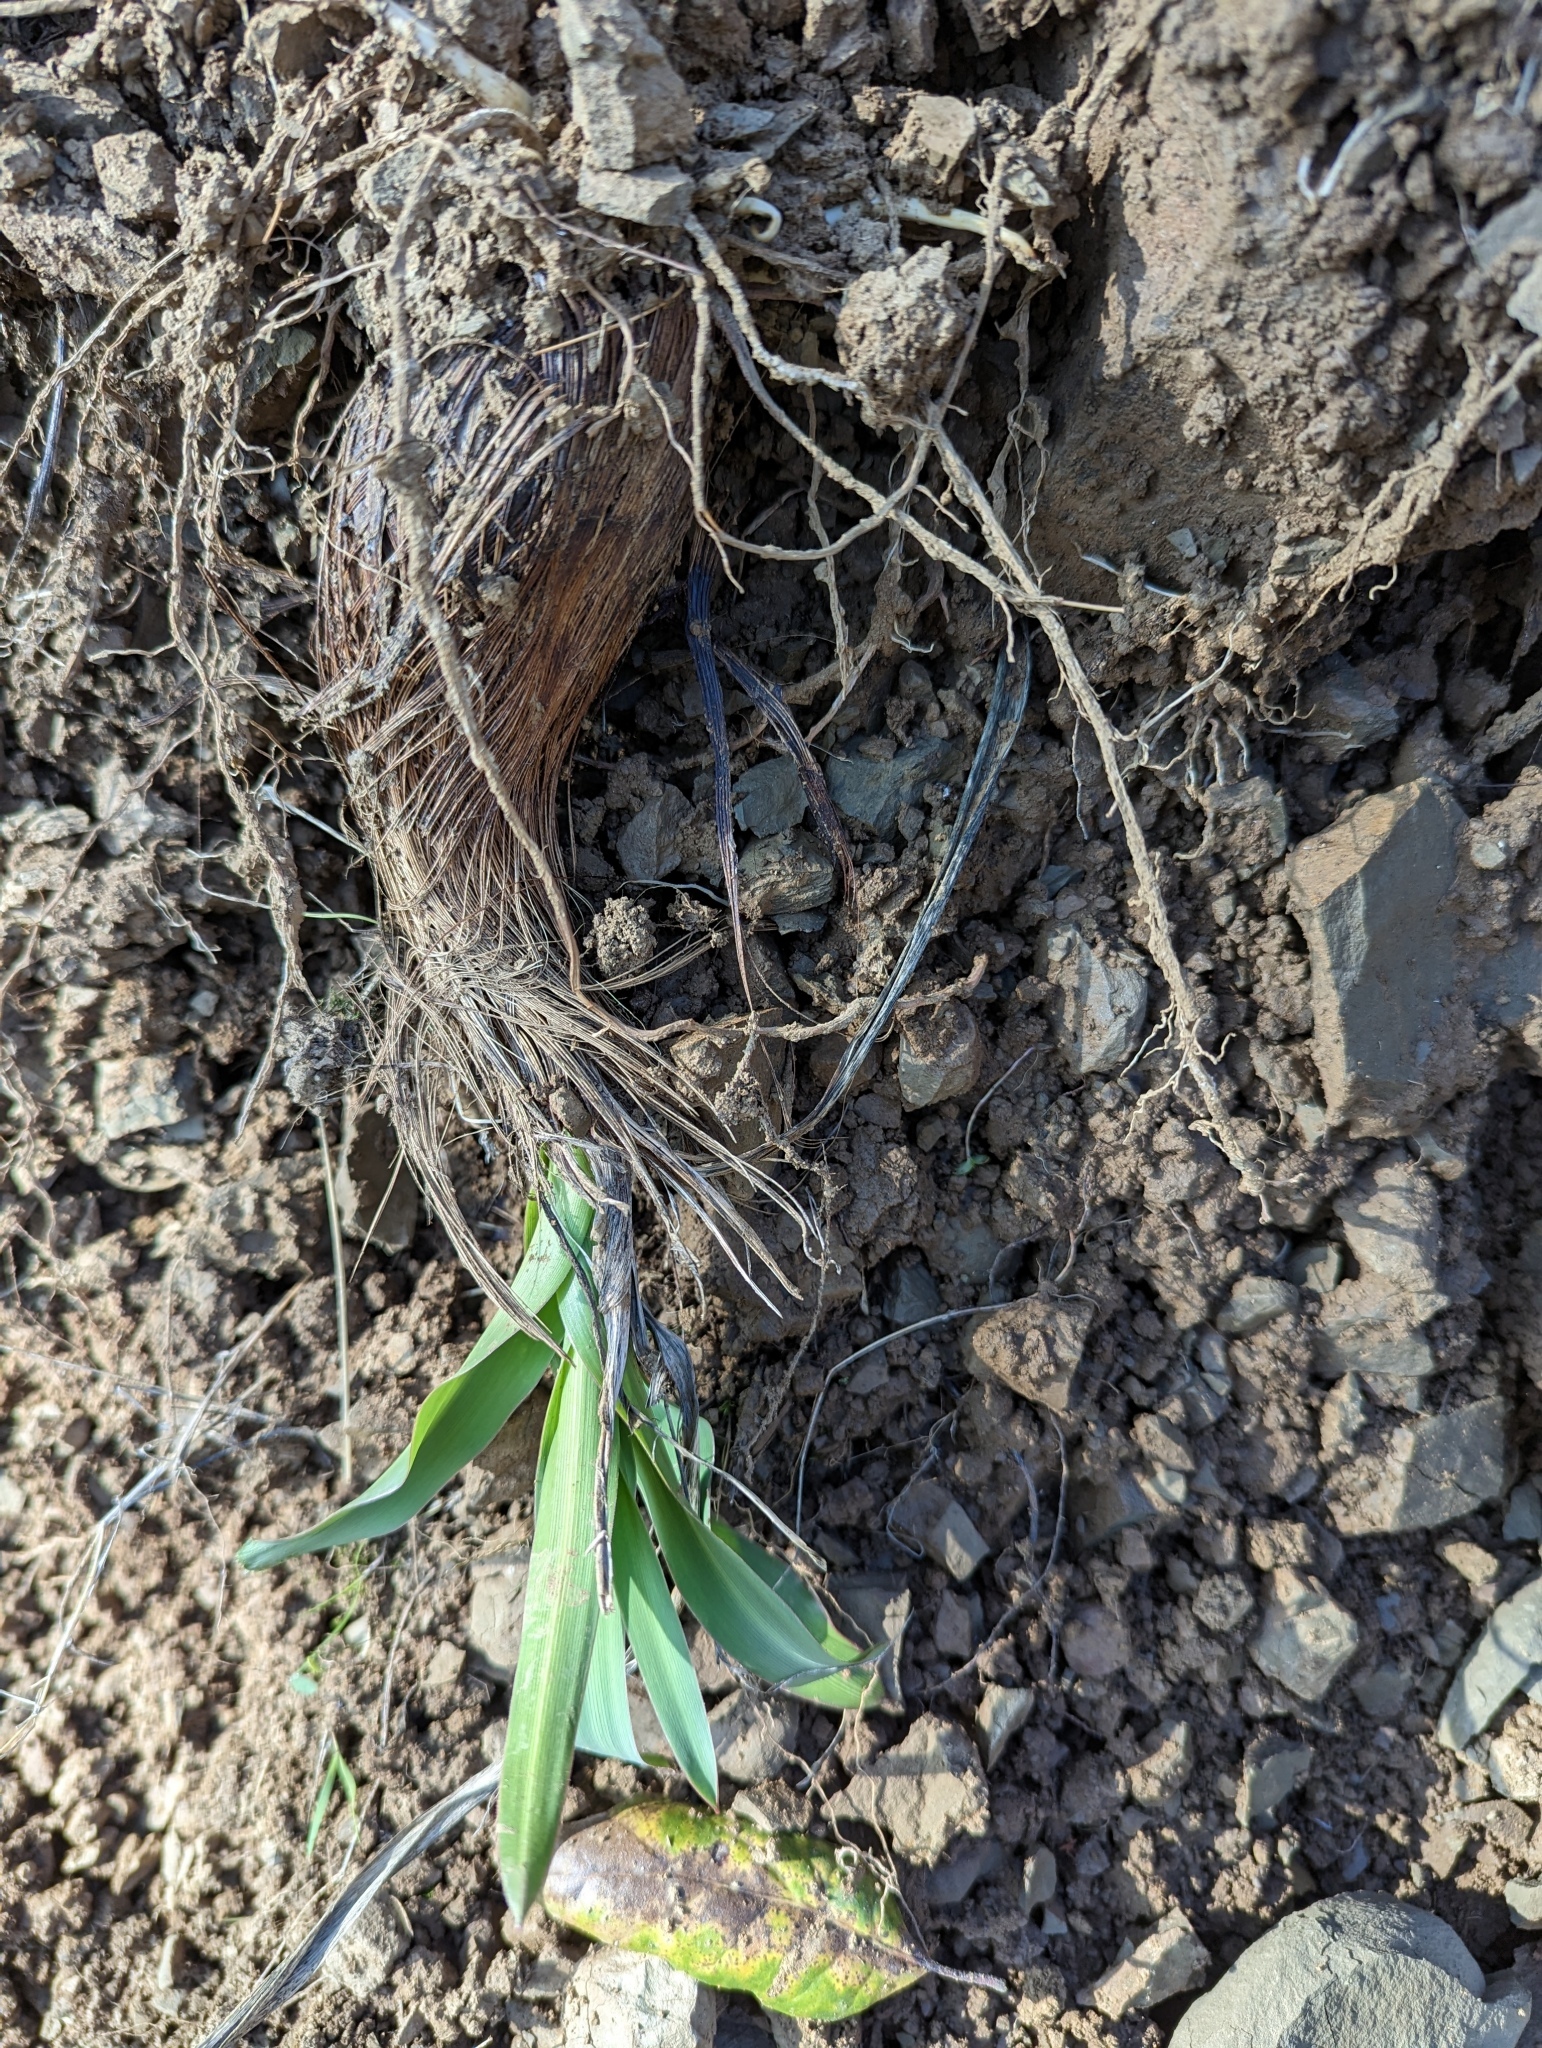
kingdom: Plantae
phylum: Tracheophyta
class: Liliopsida
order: Asparagales
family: Asparagaceae
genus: Chlorogalum
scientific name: Chlorogalum pomeridianum
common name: Amole
